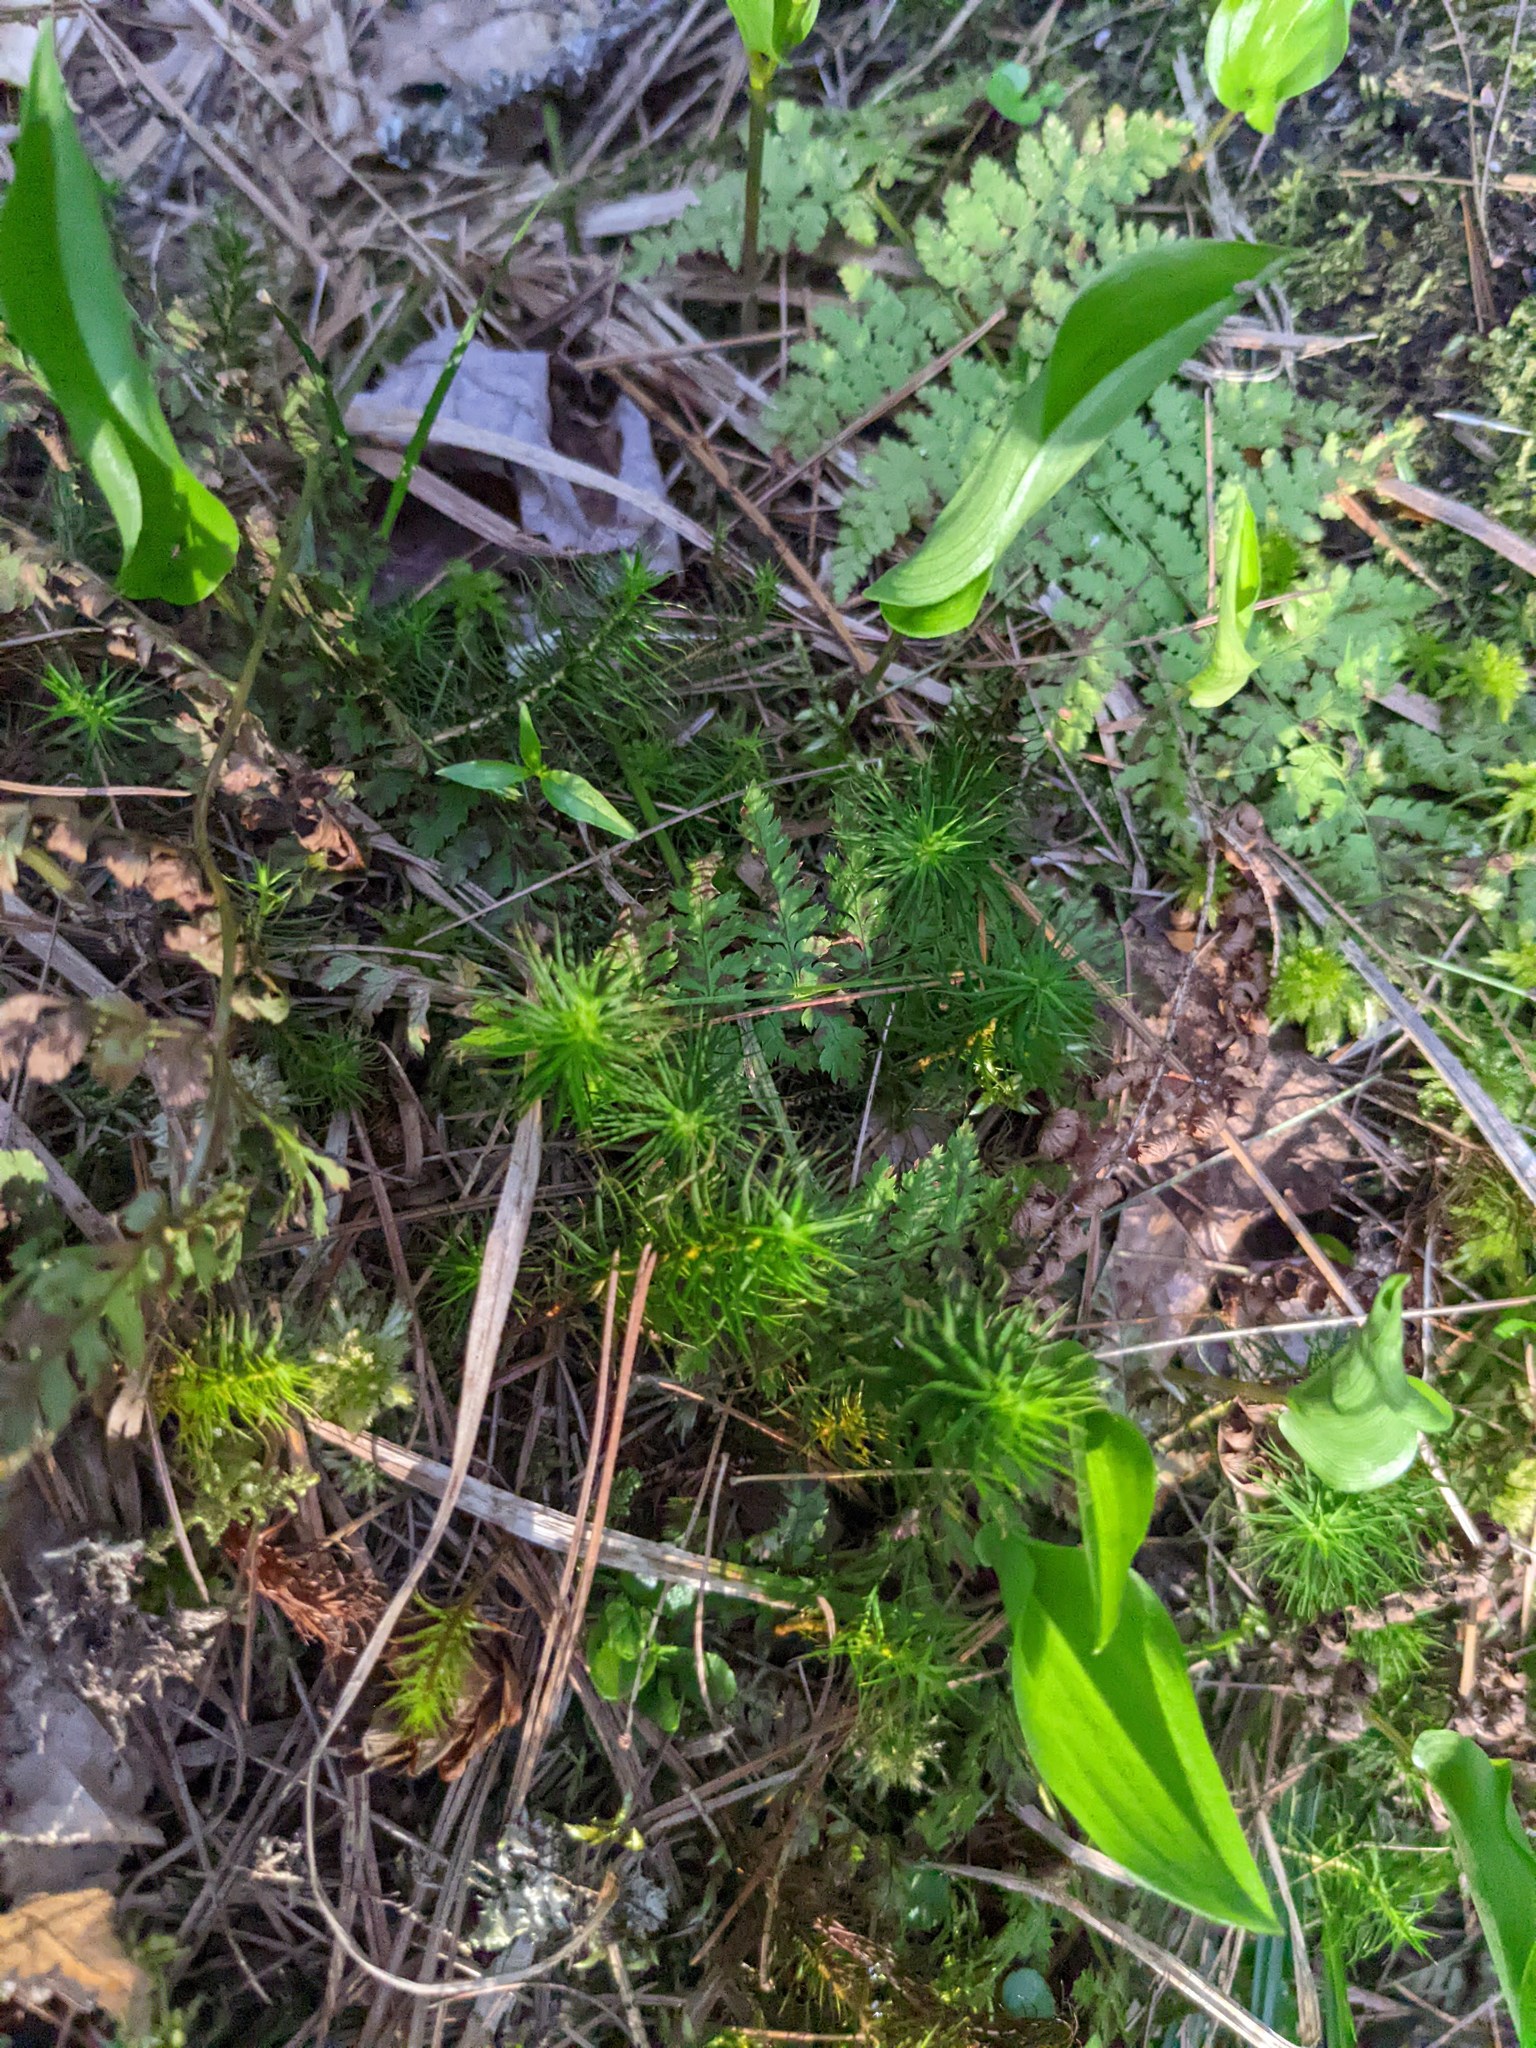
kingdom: Plantae
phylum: Tracheophyta
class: Liliopsida
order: Asparagales
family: Asparagaceae
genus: Maianthemum
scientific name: Maianthemum canadense
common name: False lily-of-the-valley
